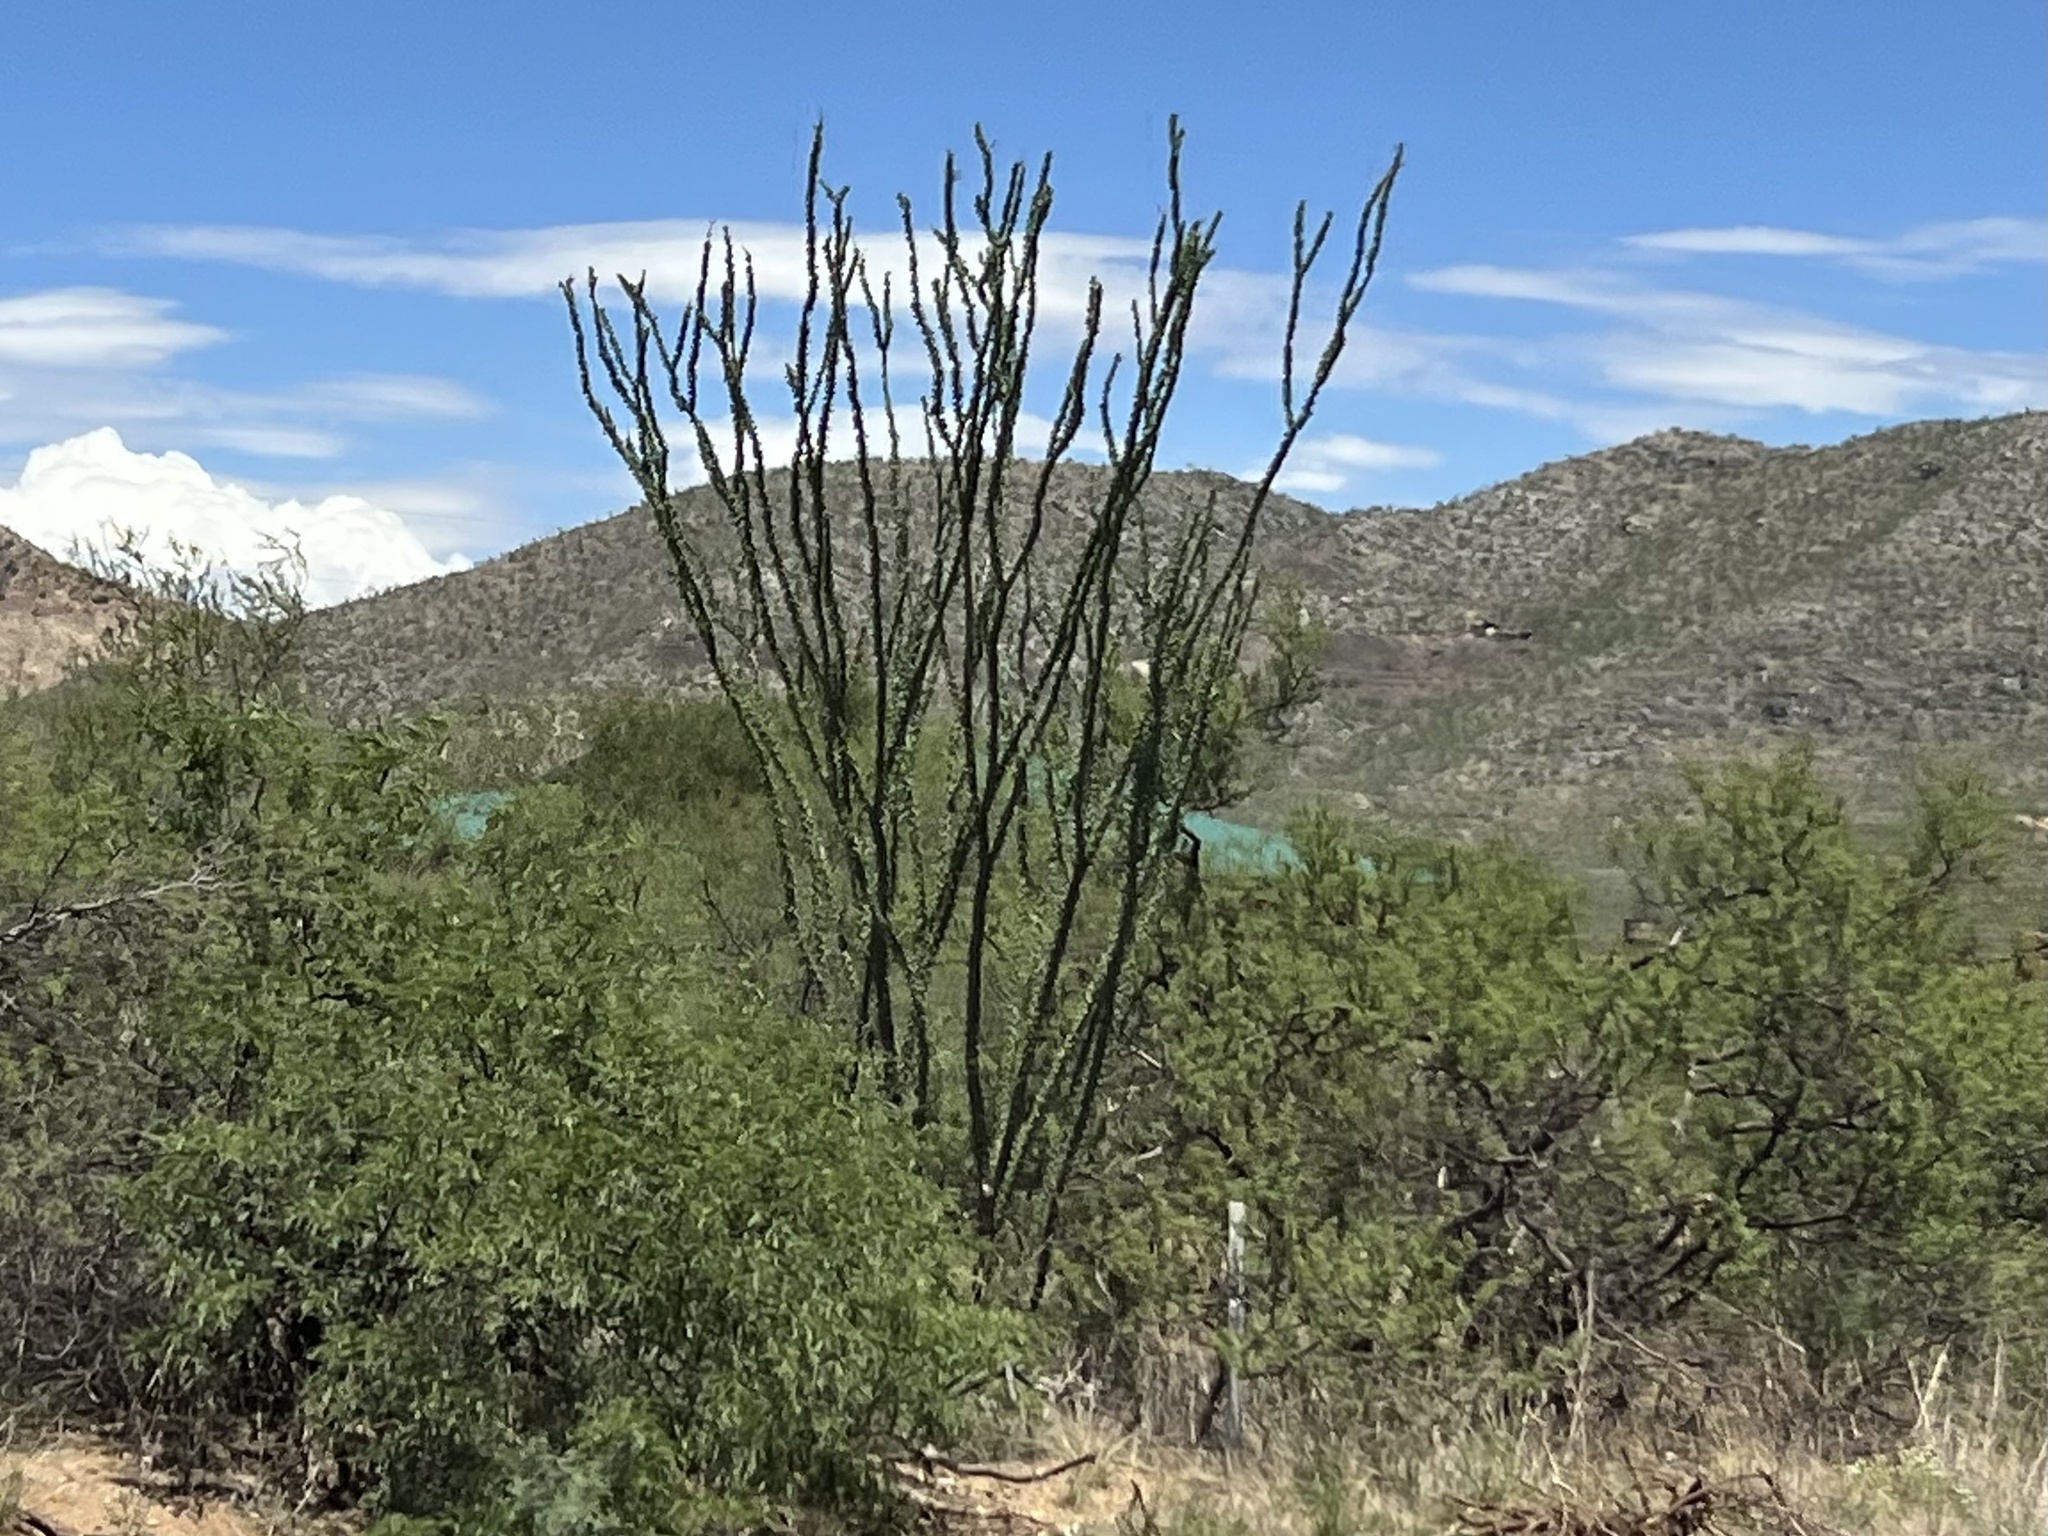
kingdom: Plantae
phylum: Tracheophyta
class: Magnoliopsida
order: Ericales
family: Fouquieriaceae
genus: Fouquieria
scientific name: Fouquieria splendens
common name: Vine-cactus
